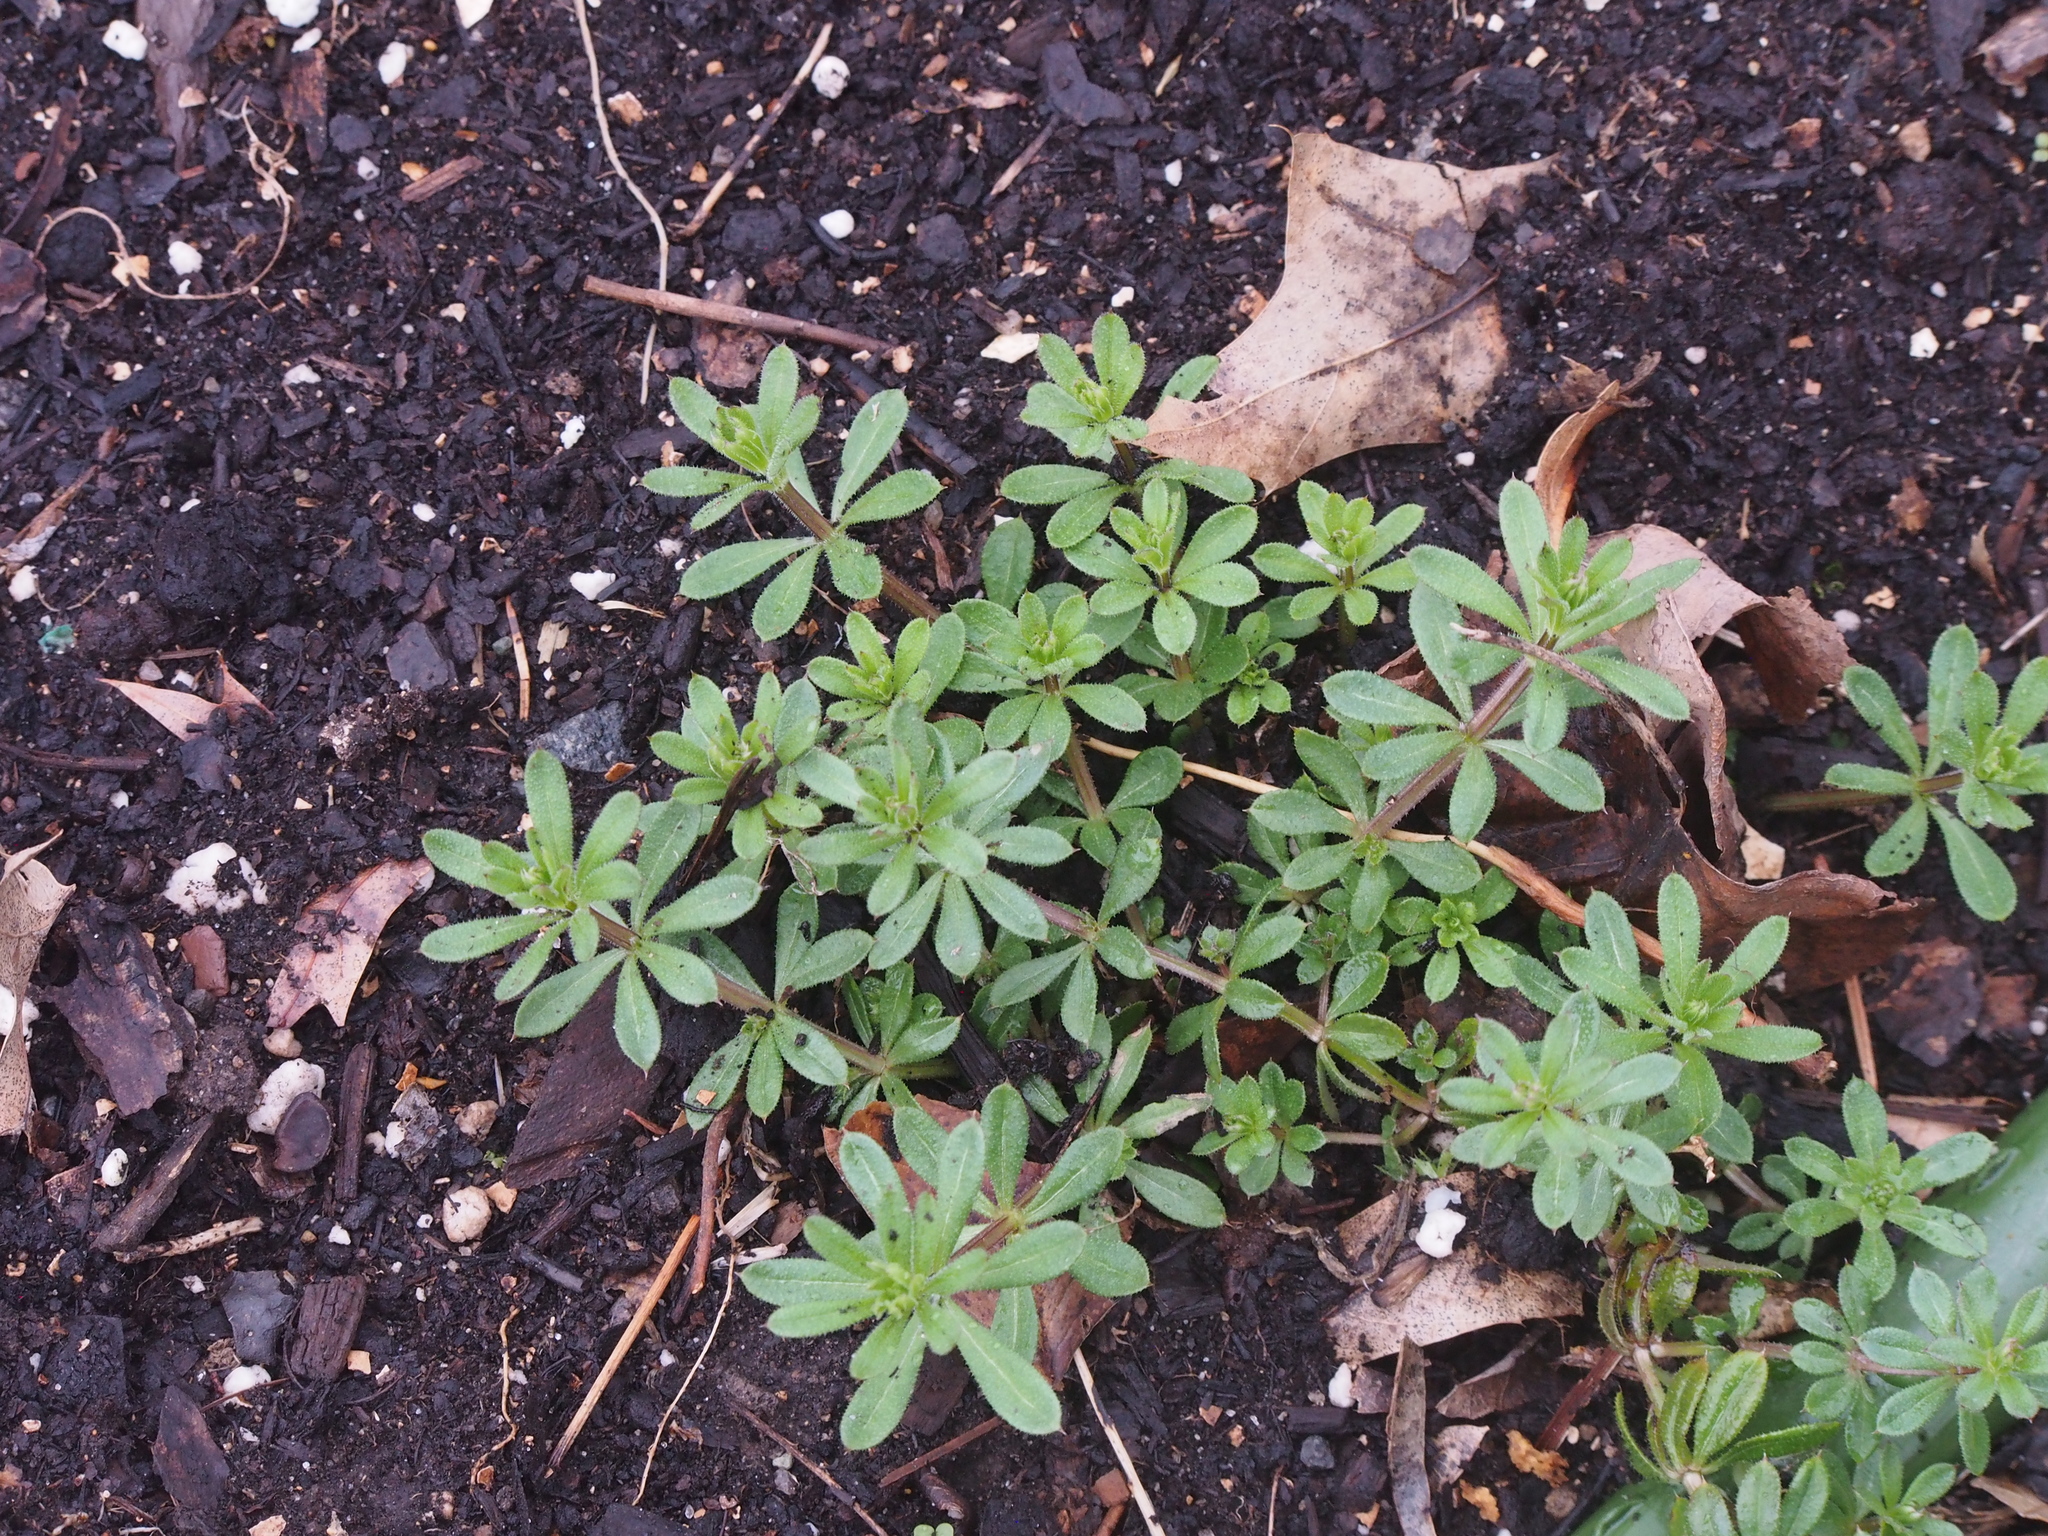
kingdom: Plantae
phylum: Tracheophyta
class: Magnoliopsida
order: Gentianales
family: Rubiaceae
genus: Galium
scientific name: Galium aparine
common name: Cleavers
